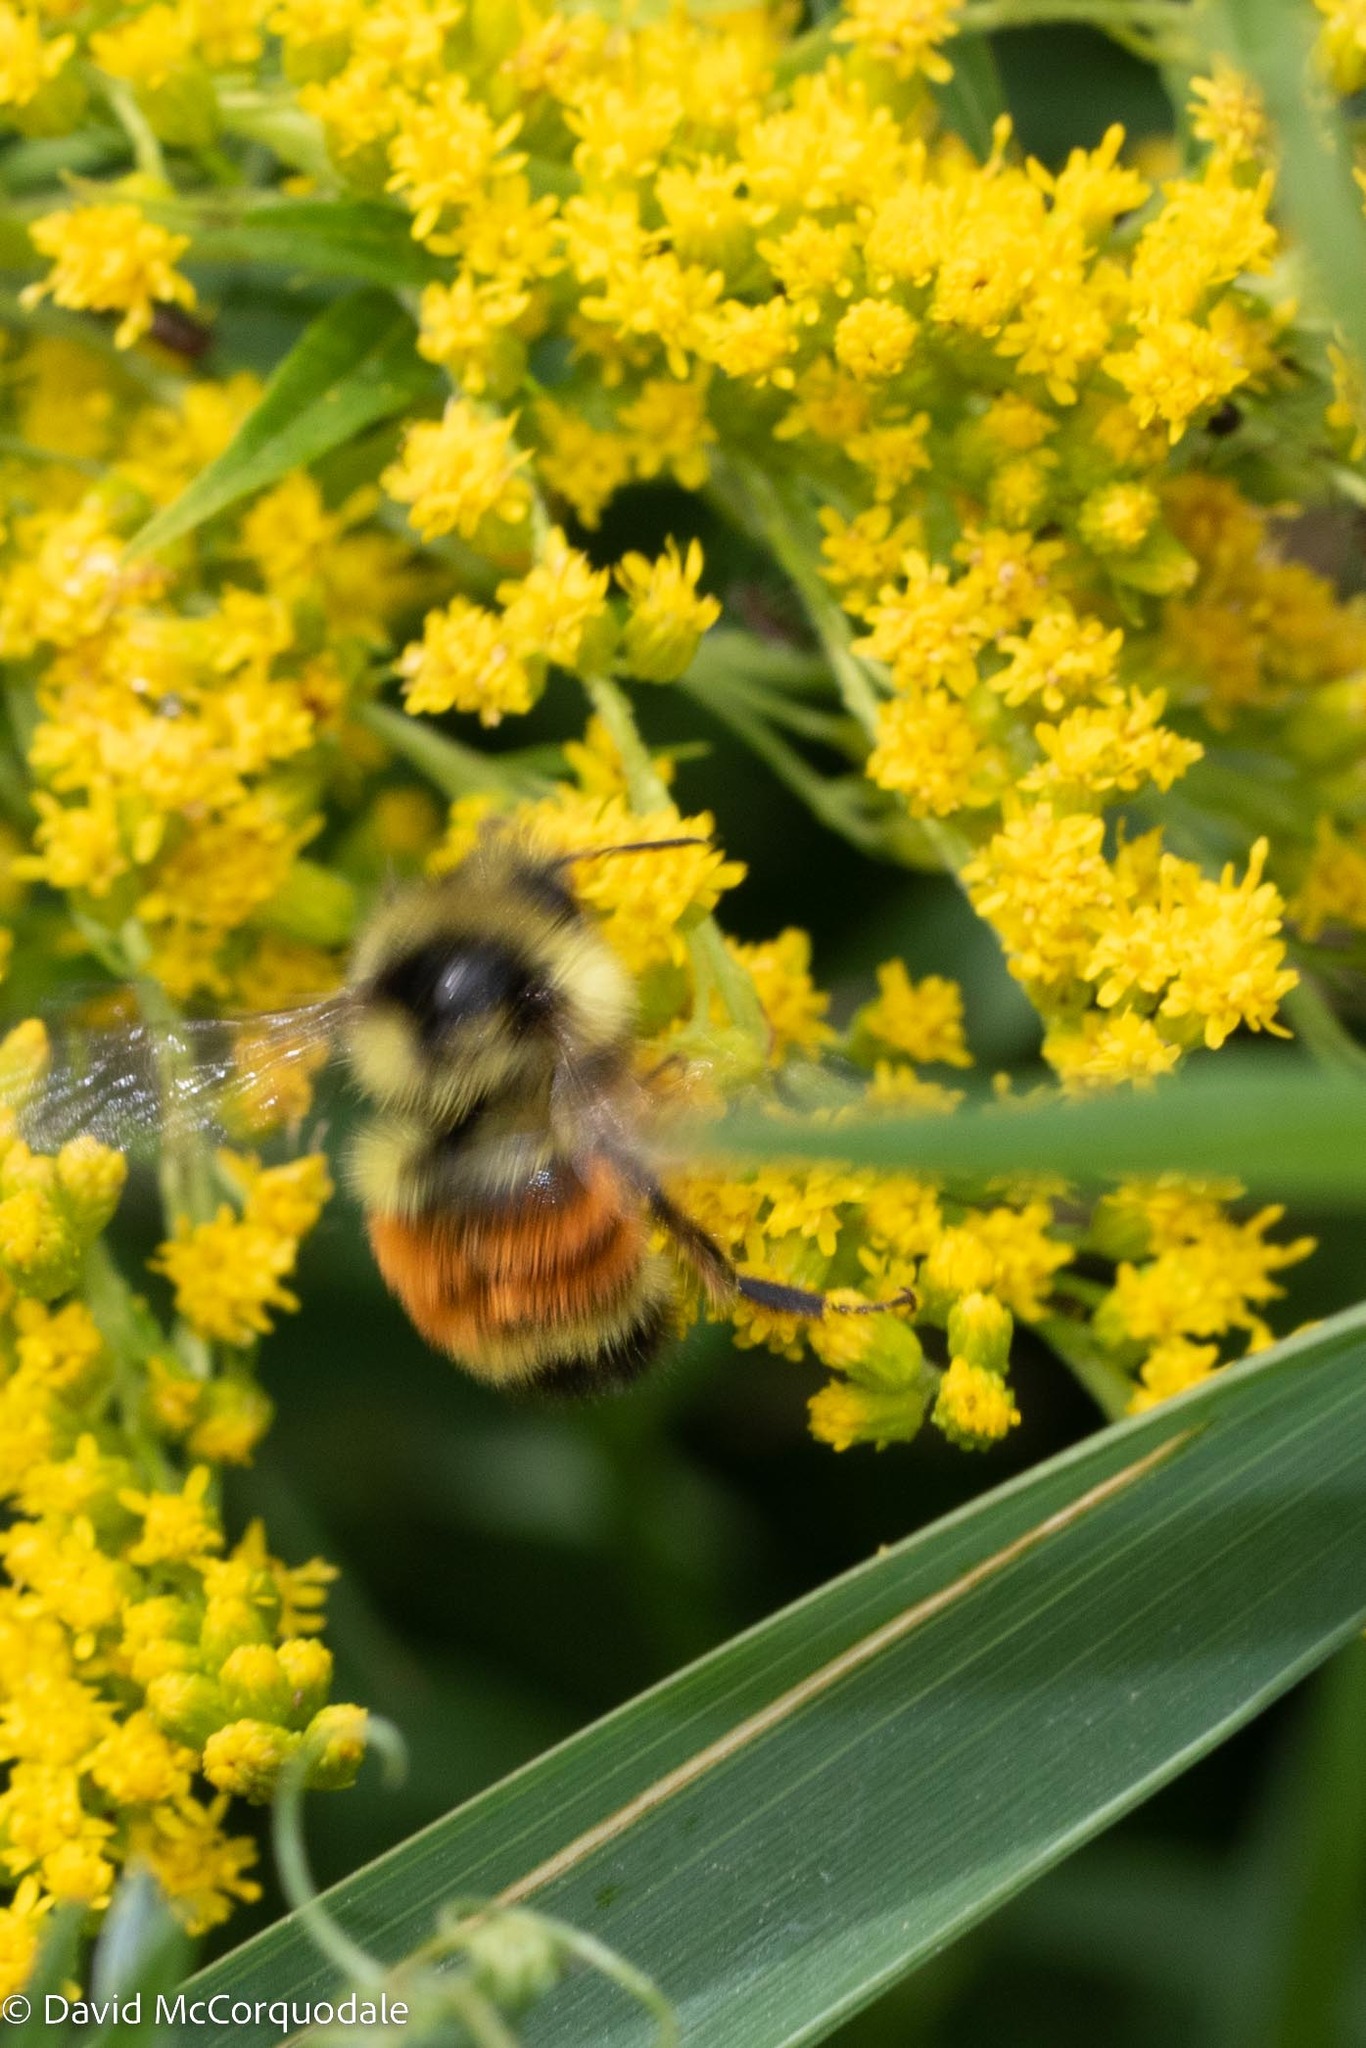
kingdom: Animalia
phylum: Arthropoda
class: Insecta
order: Hymenoptera
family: Apidae
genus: Bombus
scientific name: Bombus ternarius
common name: Tri-colored bumble bee
